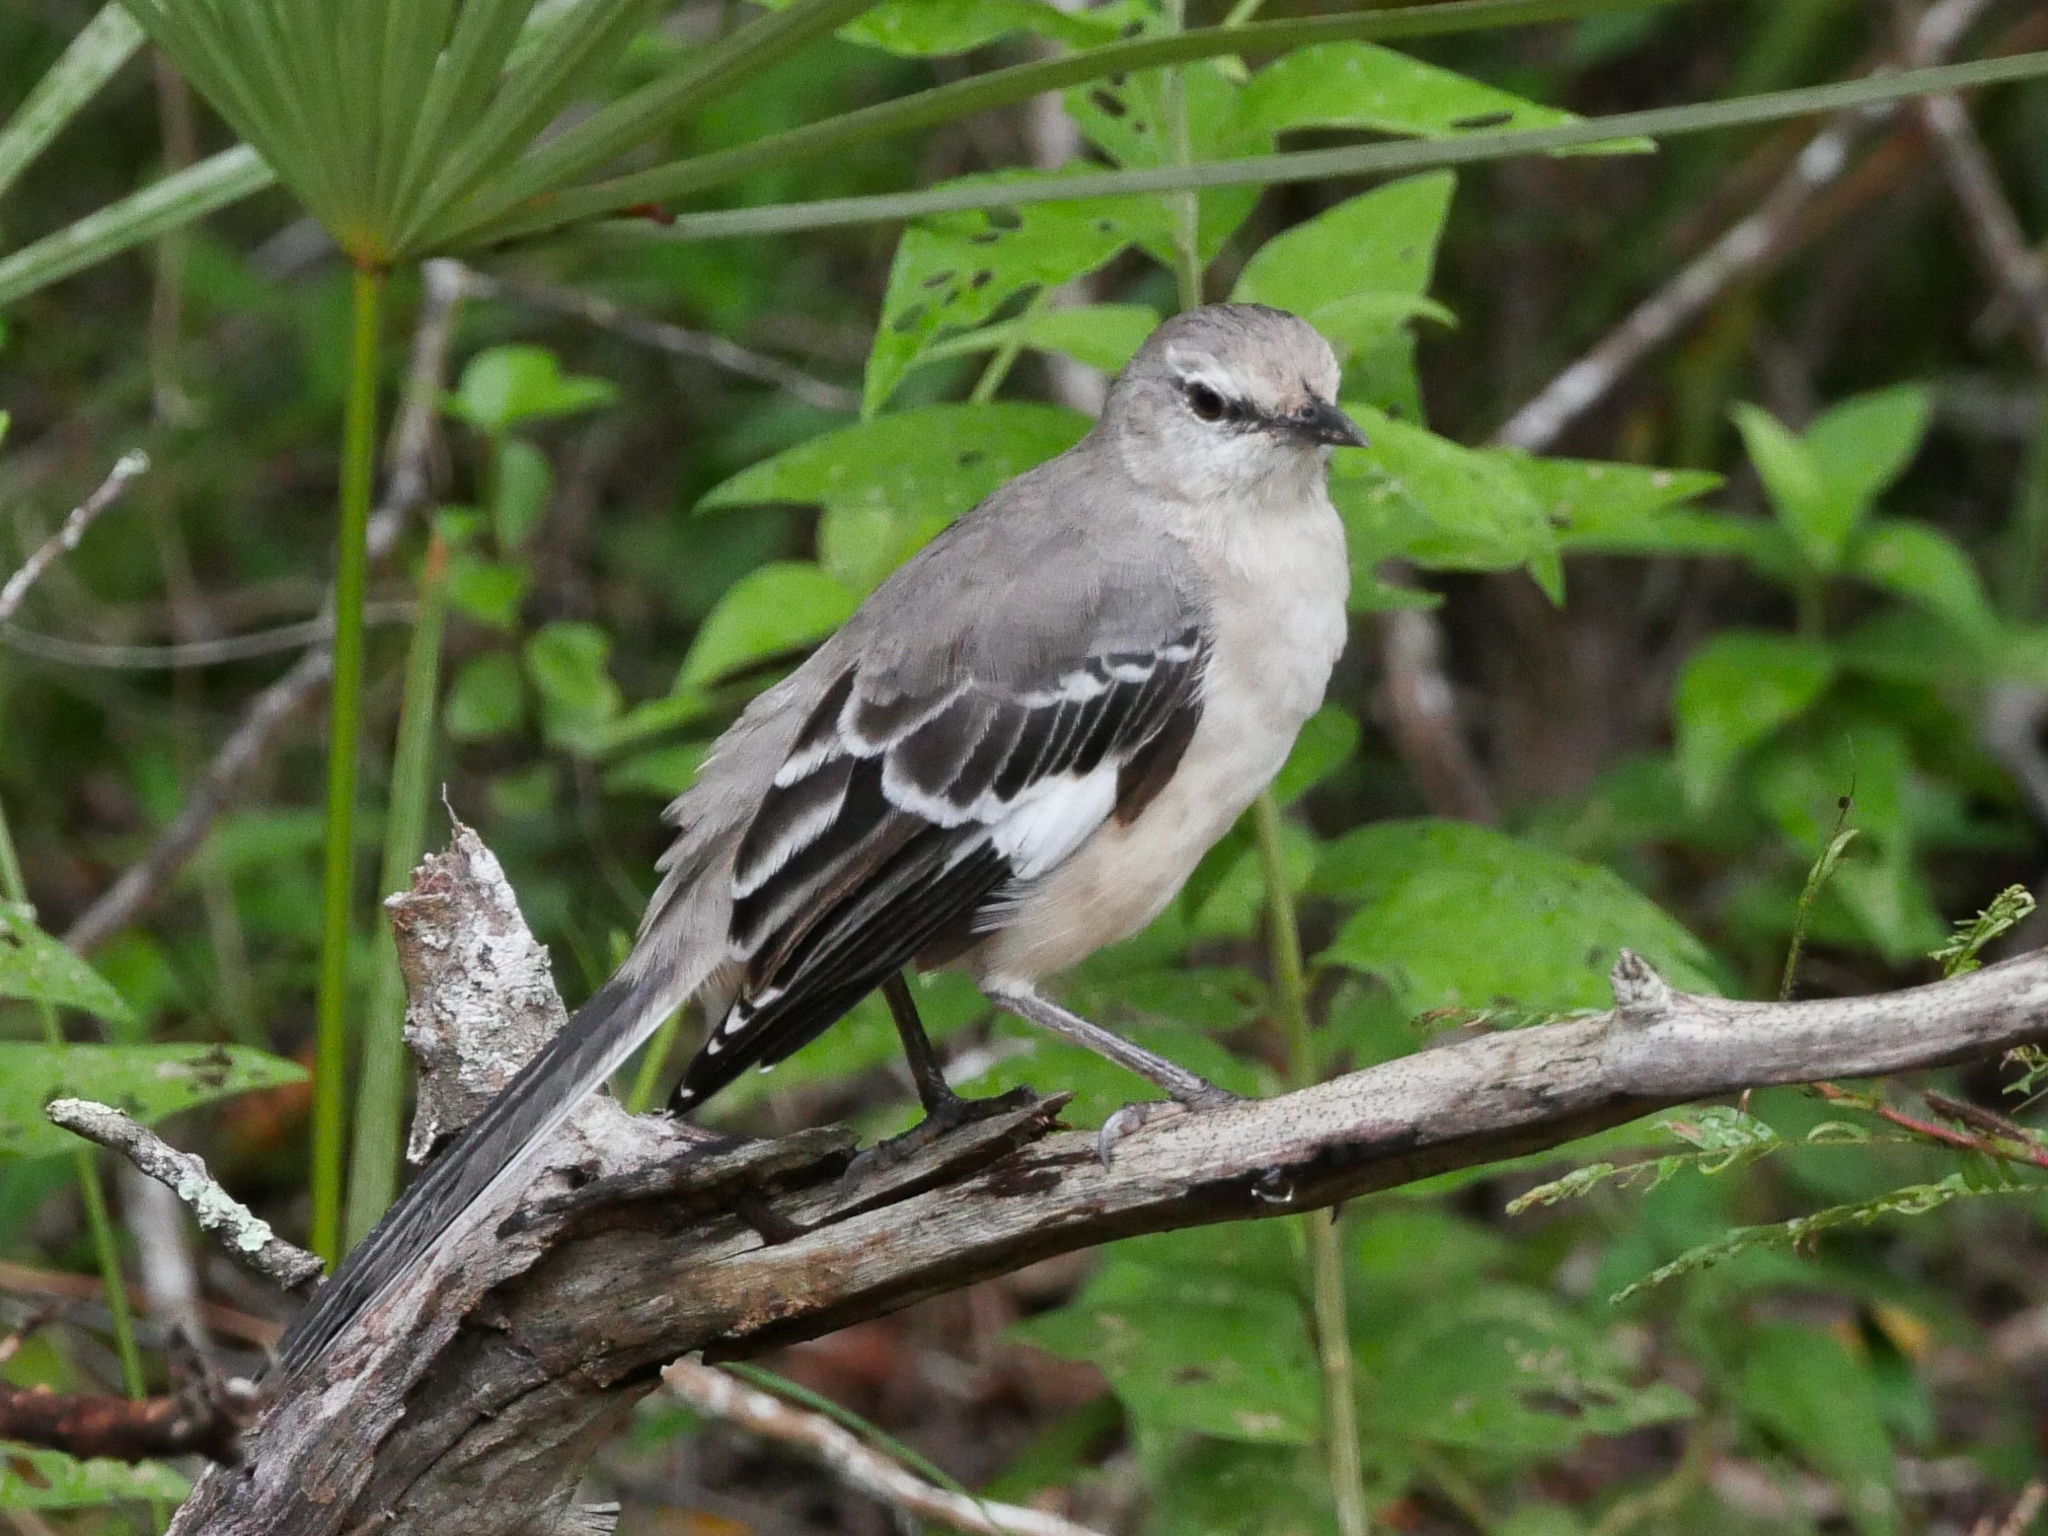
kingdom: Animalia
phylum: Chordata
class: Aves
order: Passeriformes
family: Mimidae
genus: Mimus
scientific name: Mimus polyglottos
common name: Northern mockingbird
